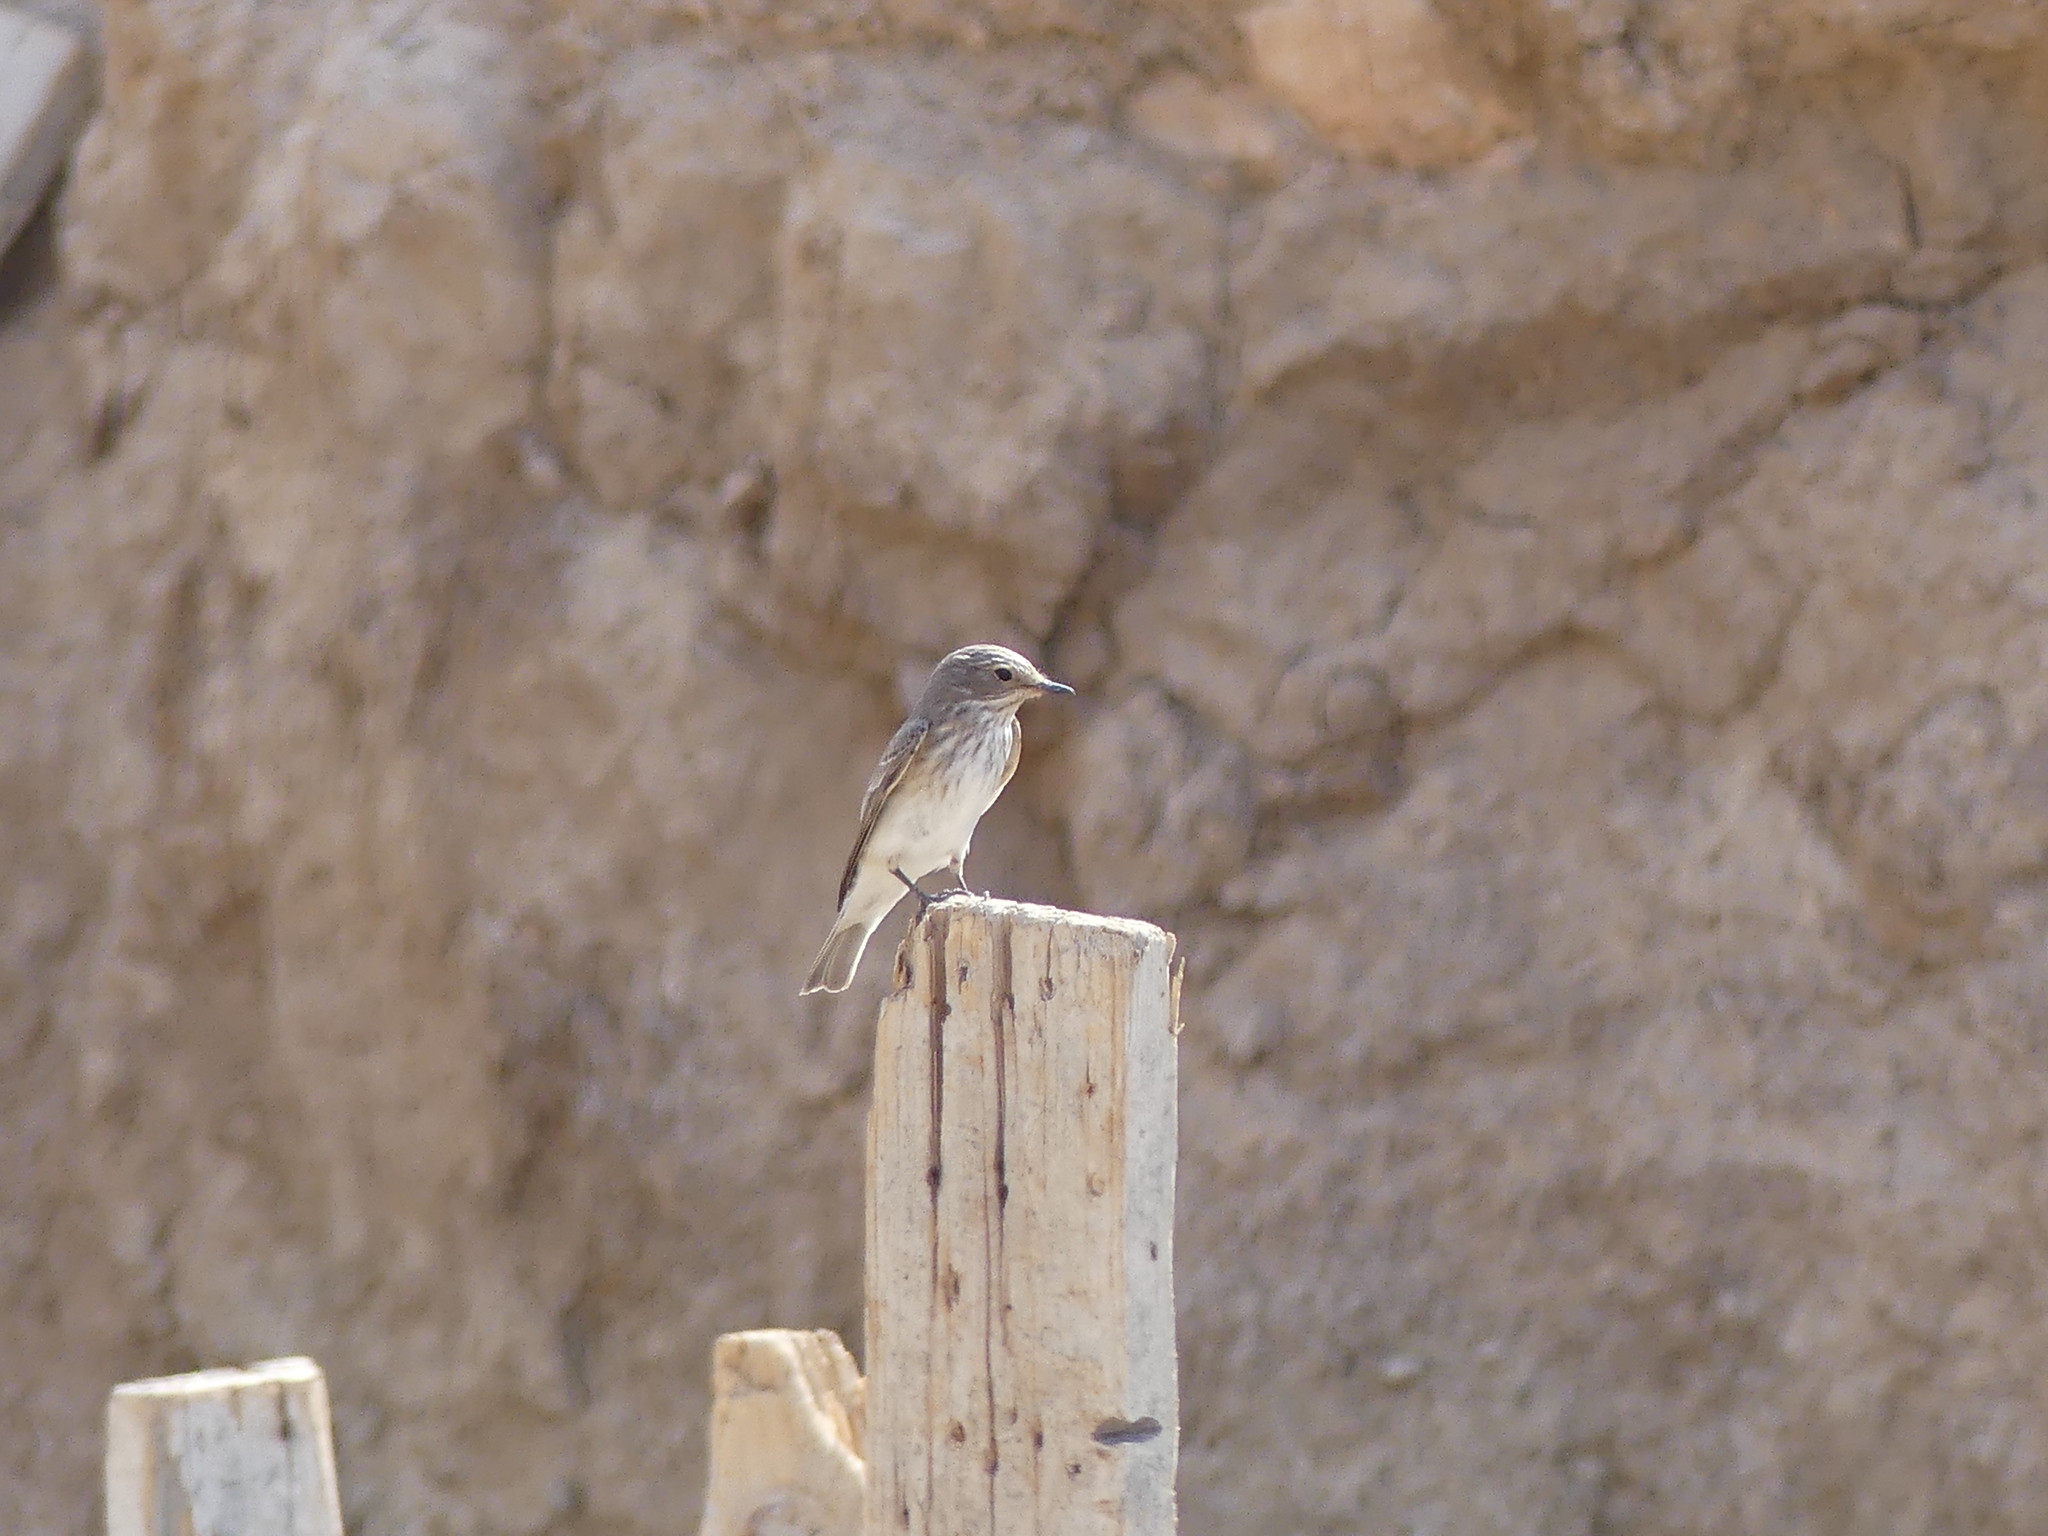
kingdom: Animalia
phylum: Chordata
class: Aves
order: Passeriformes
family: Muscicapidae
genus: Muscicapa
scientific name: Muscicapa striata
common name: Spotted flycatcher
